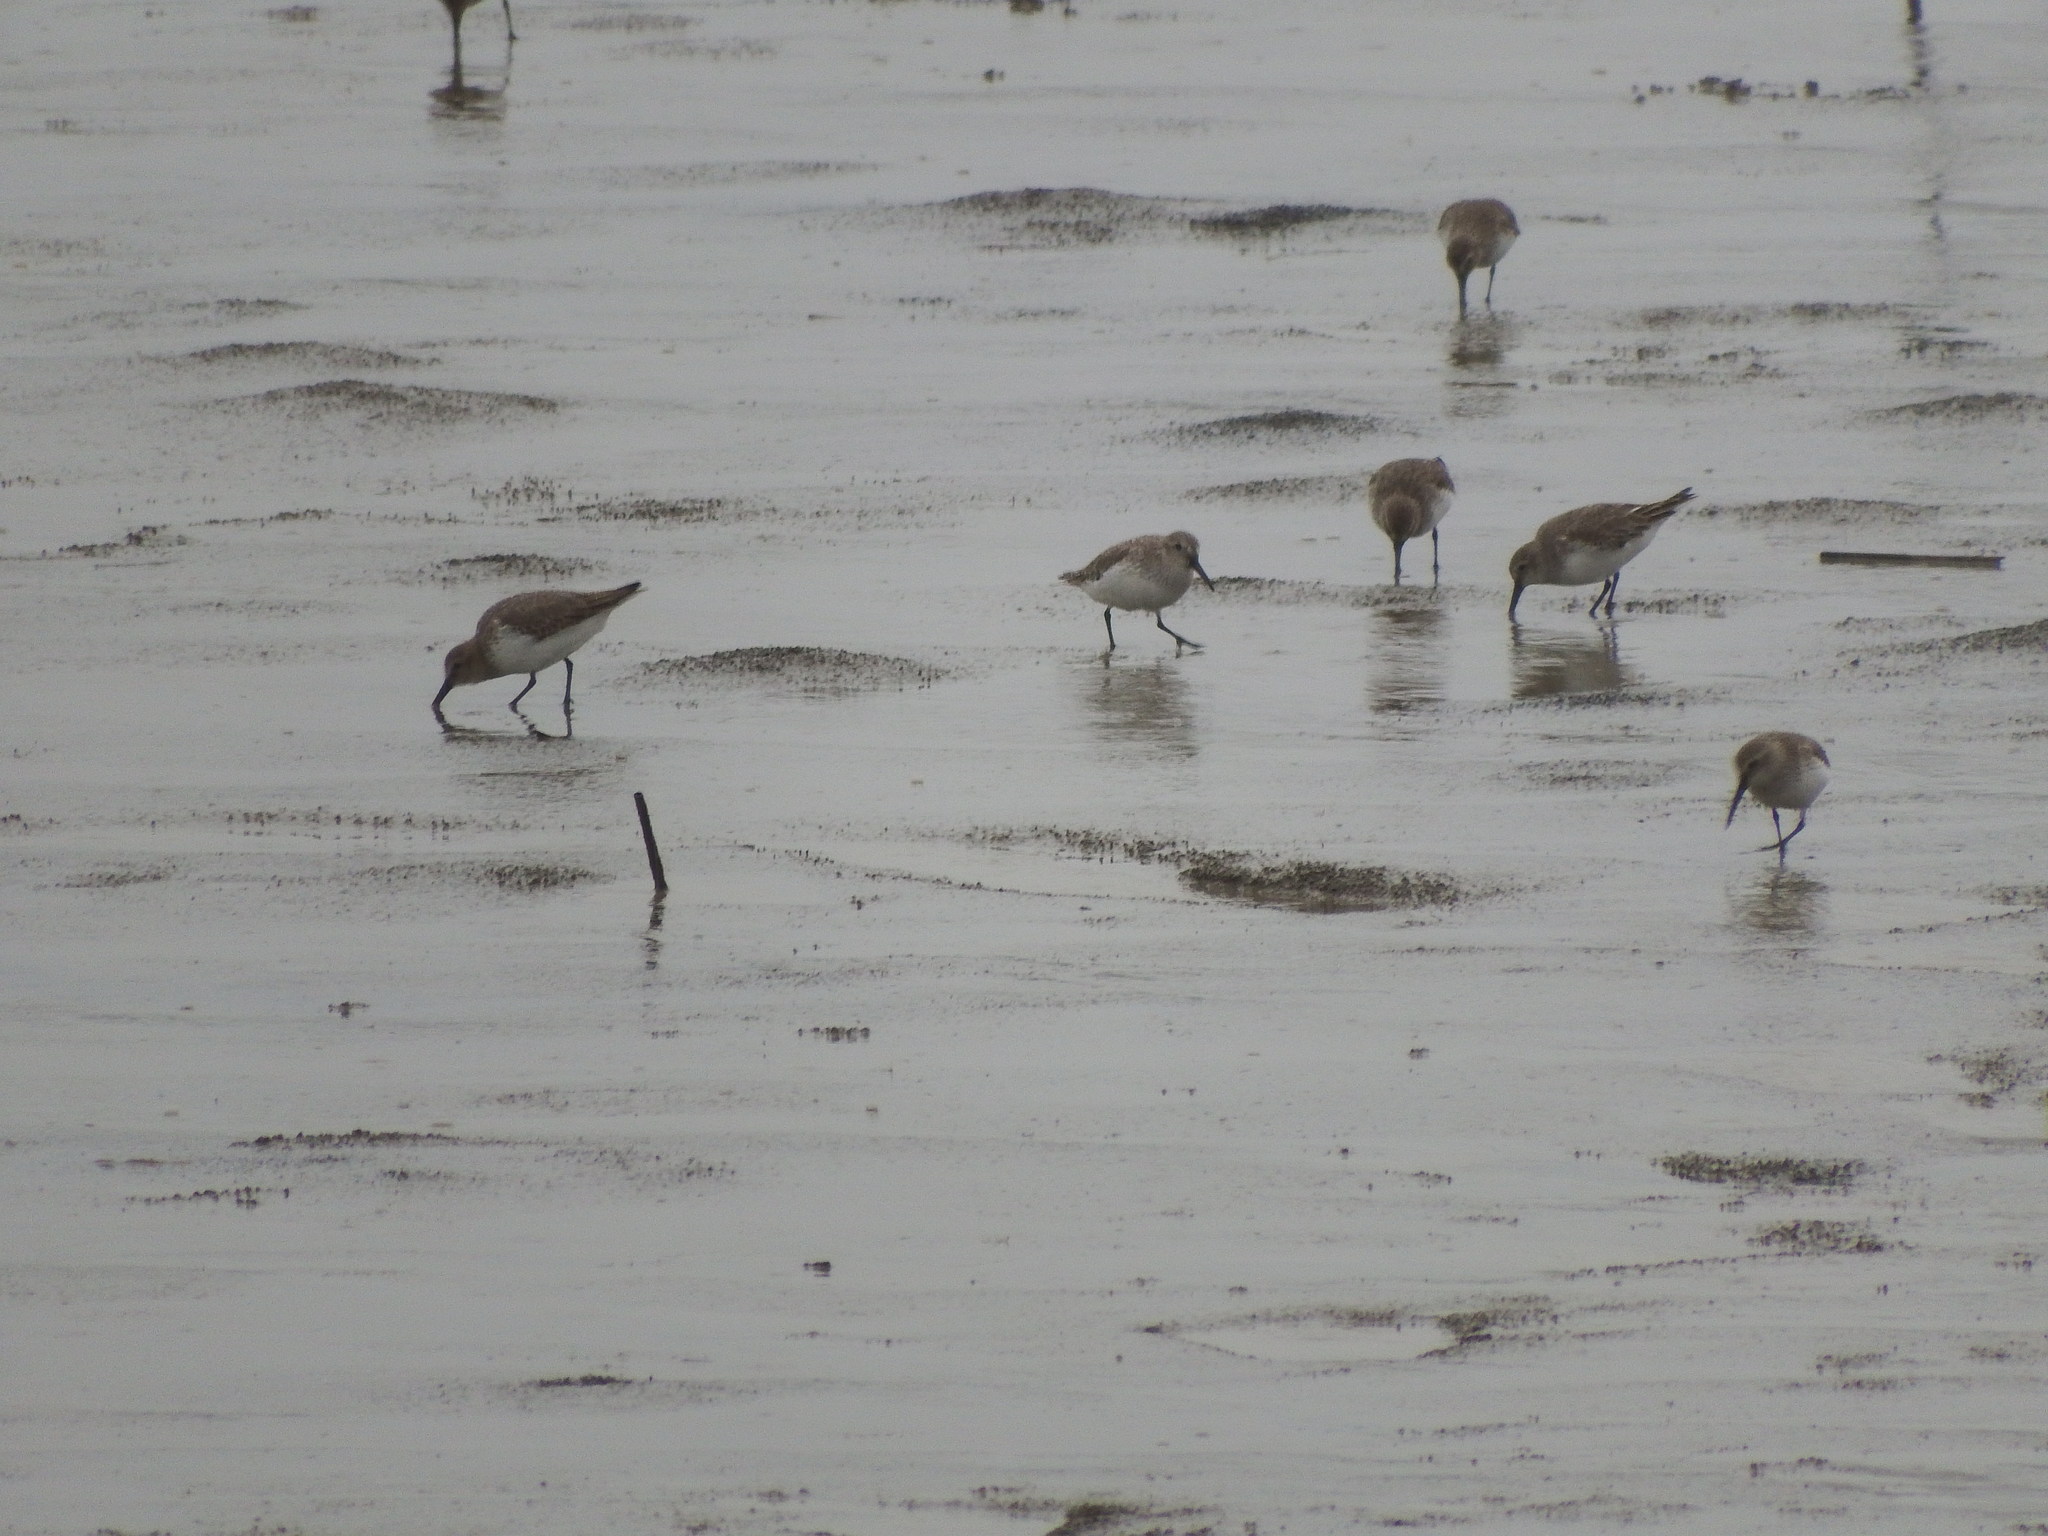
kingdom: Animalia
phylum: Chordata
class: Aves
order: Charadriiformes
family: Scolopacidae
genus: Calidris
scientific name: Calidris alpina
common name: Dunlin
